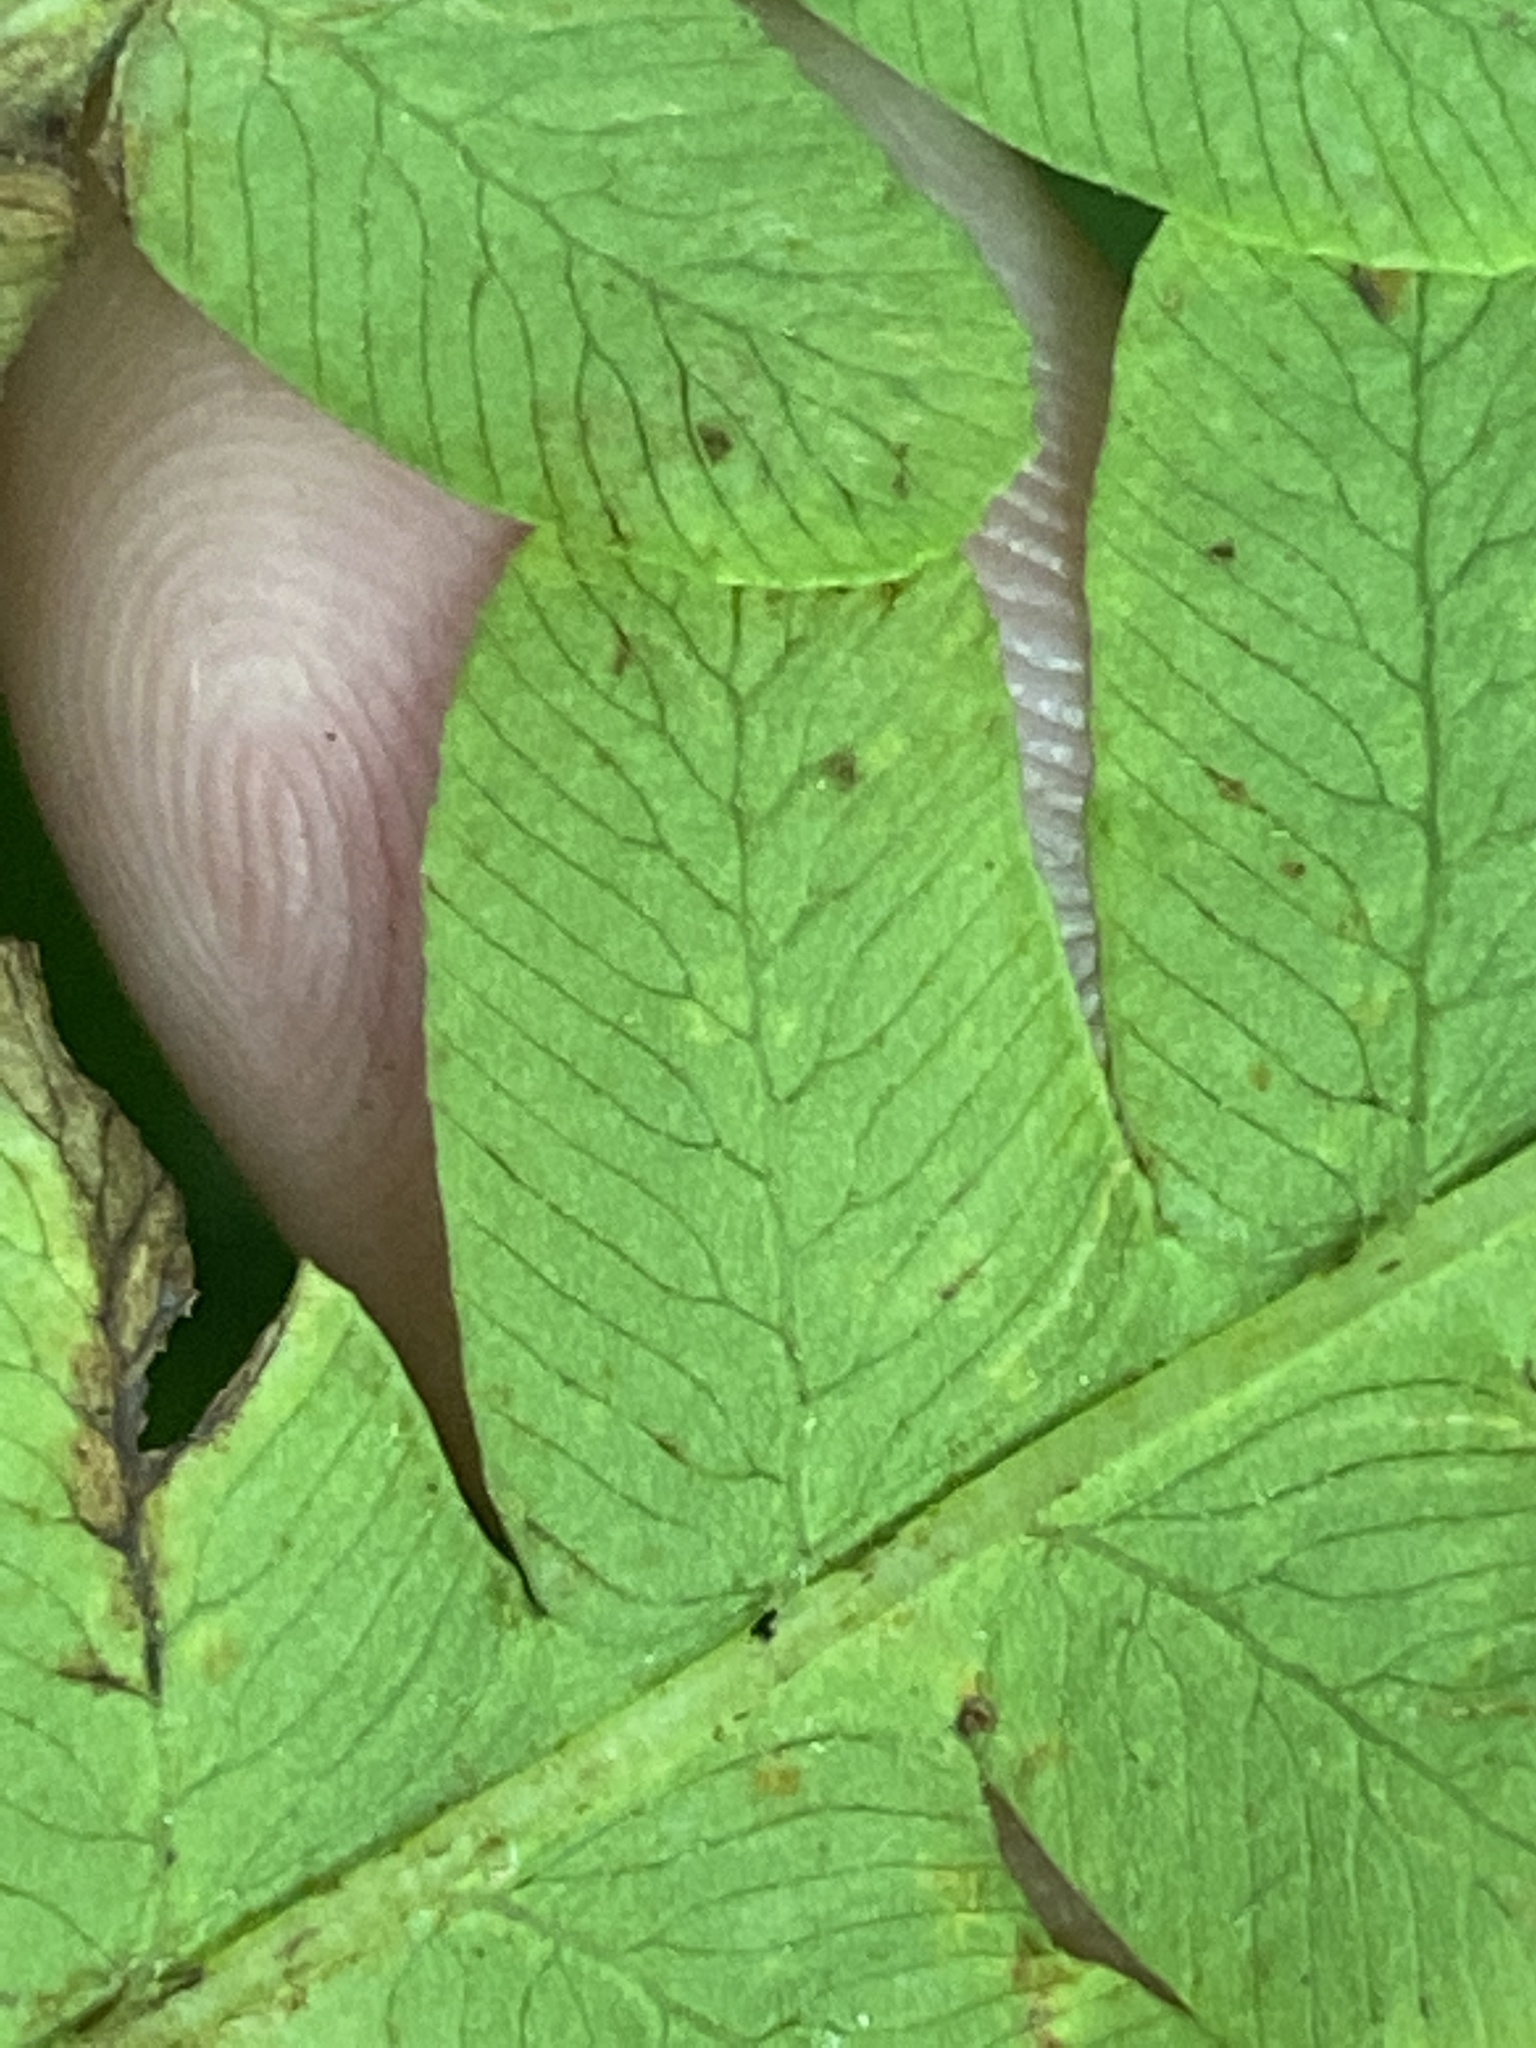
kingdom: Plantae
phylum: Tracheophyta
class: Polypodiopsida
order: Osmundales
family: Osmundaceae
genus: Claytosmunda
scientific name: Claytosmunda claytoniana
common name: Clayton's fern
